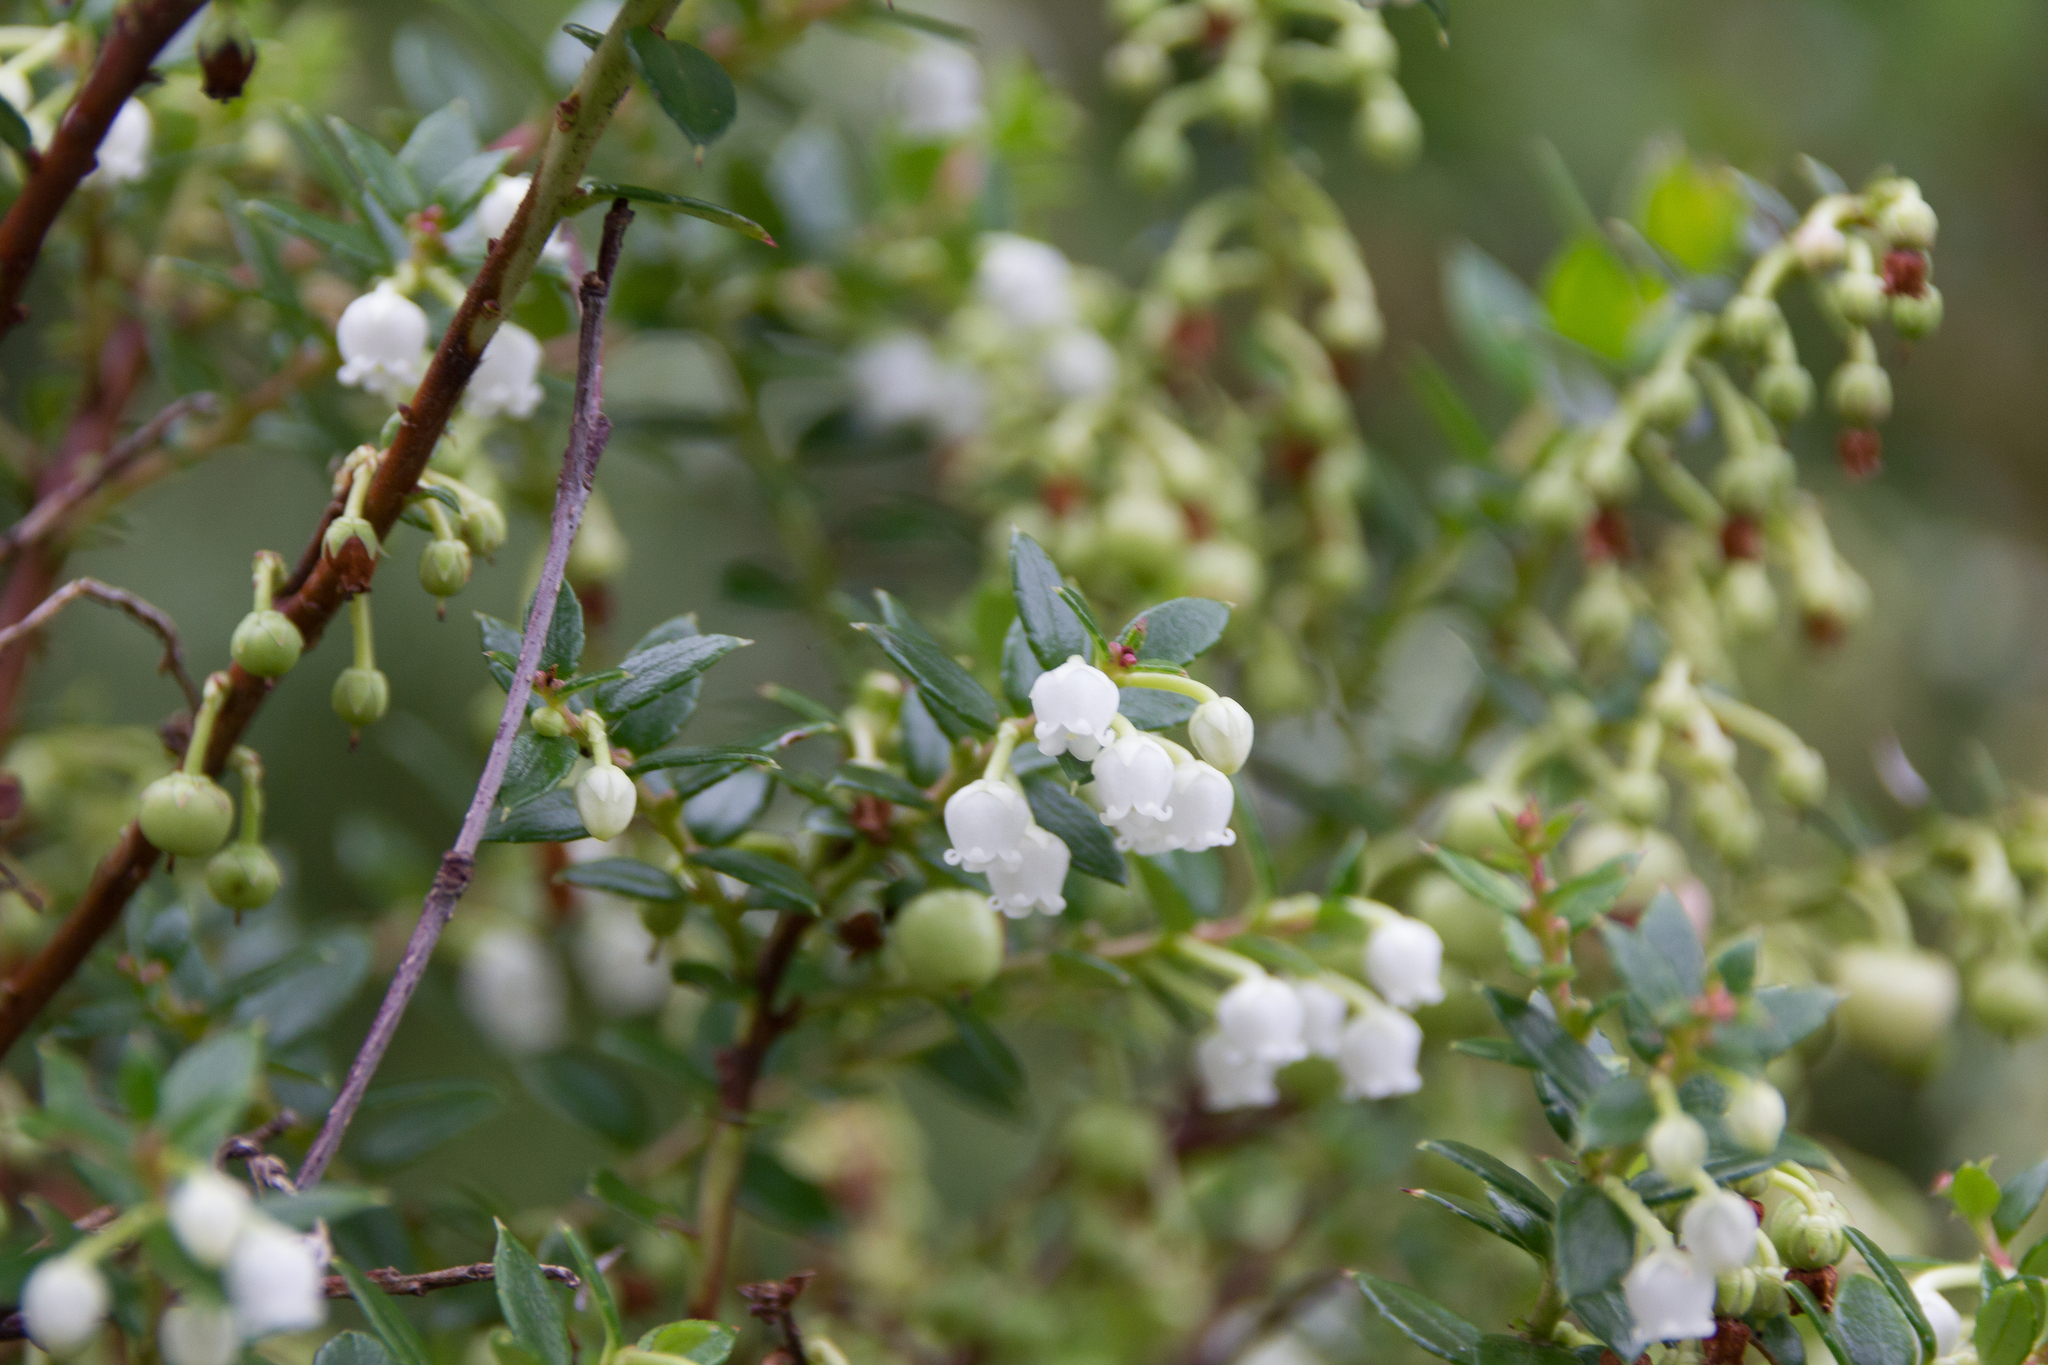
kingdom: Plantae
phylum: Tracheophyta
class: Magnoliopsida
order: Ericales
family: Ericaceae
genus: Gaultheria
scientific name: Gaultheria mucronata
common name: Prickly heath
